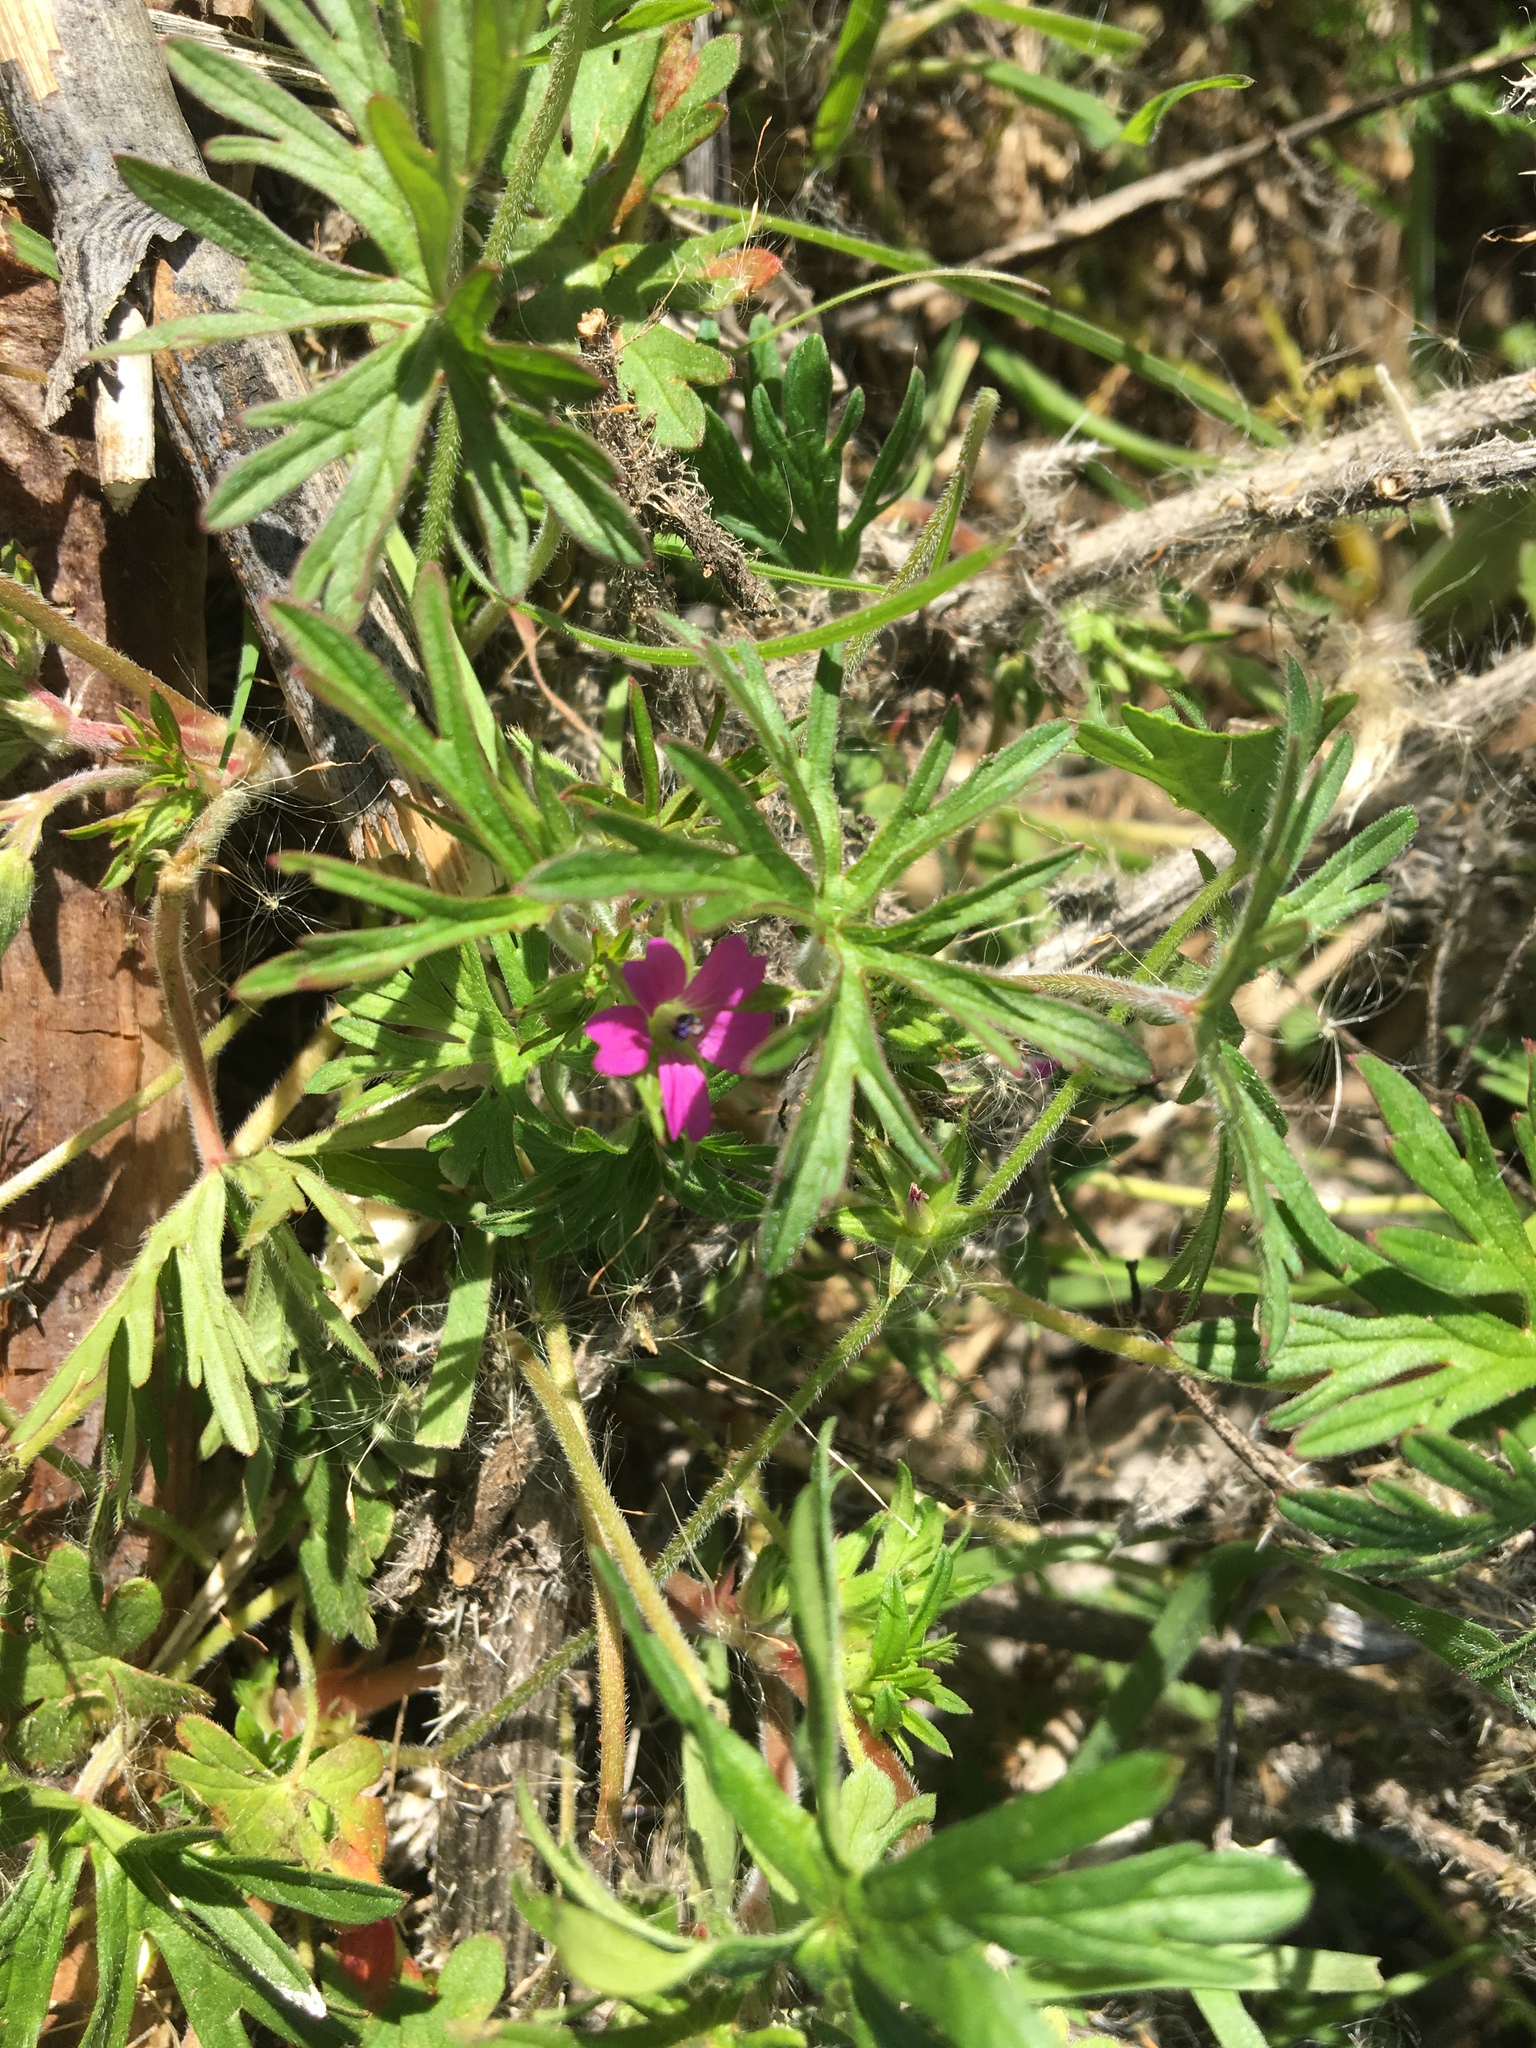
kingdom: Plantae
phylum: Tracheophyta
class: Magnoliopsida
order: Geraniales
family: Geraniaceae
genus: Geranium
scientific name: Geranium dissectum
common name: Cut-leaved crane's-bill
